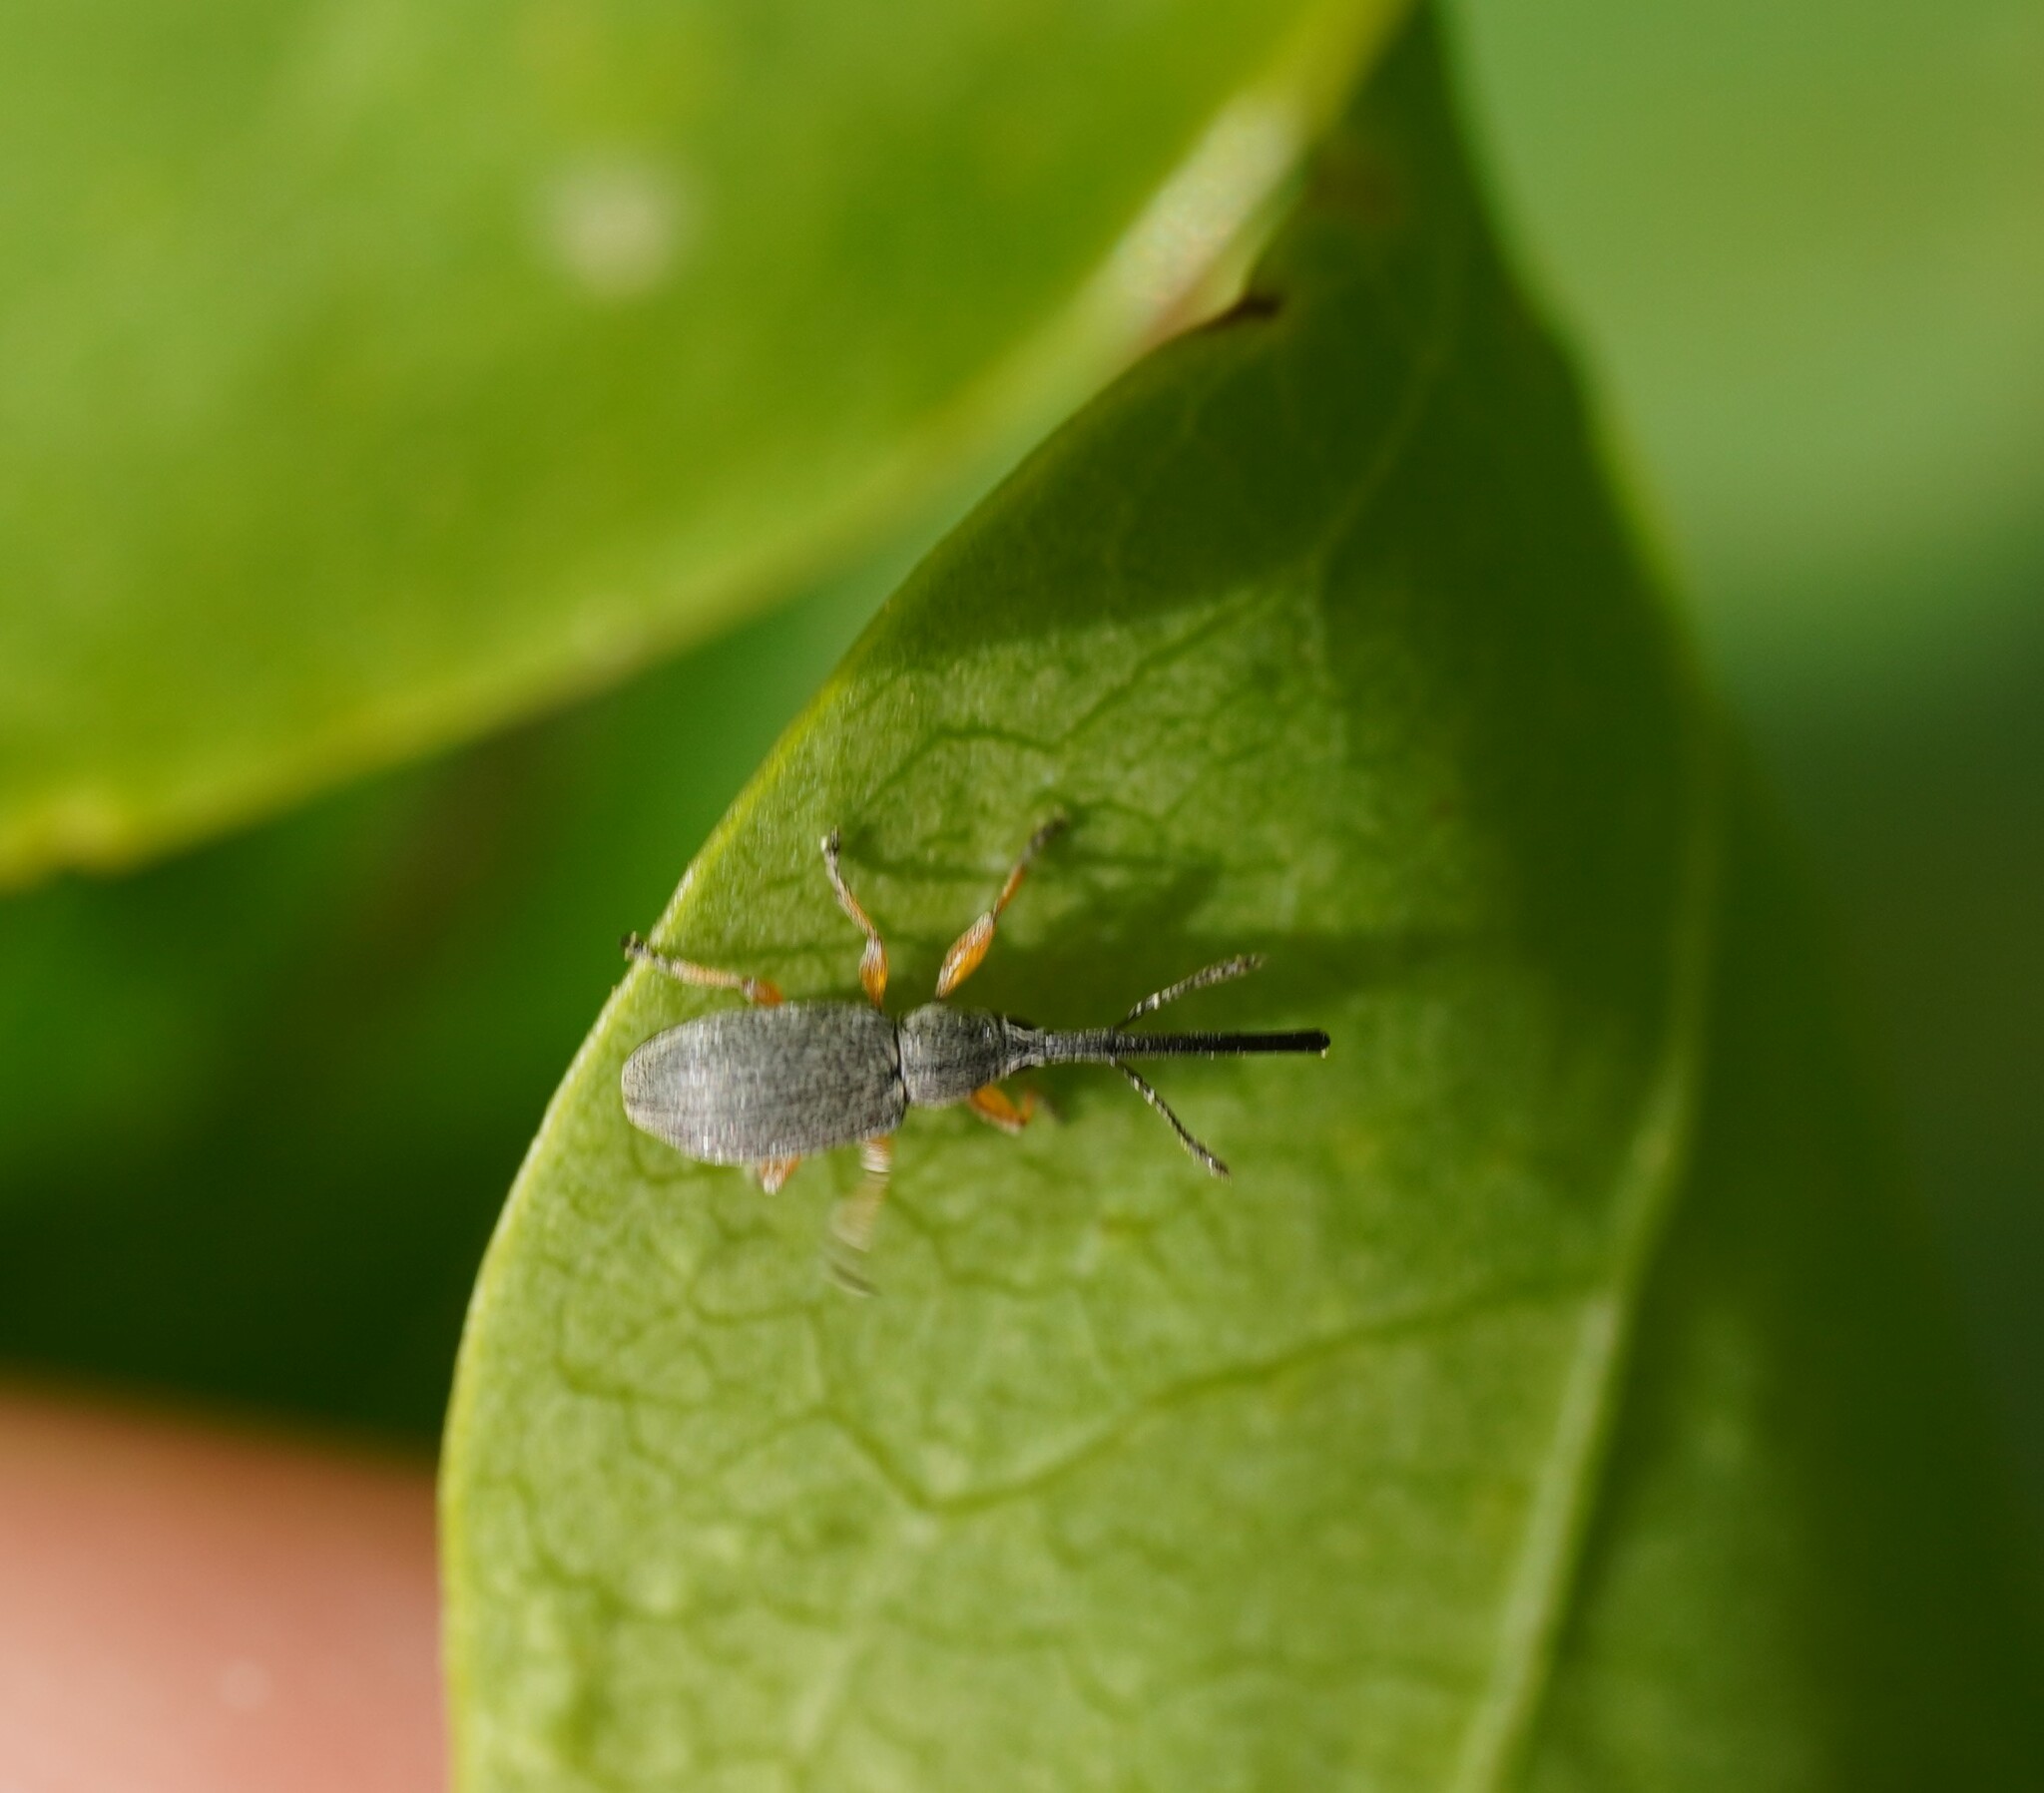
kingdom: Animalia
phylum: Arthropoda
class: Insecta
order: Coleoptera
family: Brentidae
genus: Rhopalapion
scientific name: Rhopalapion longirostre
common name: Hollyhock weevil
